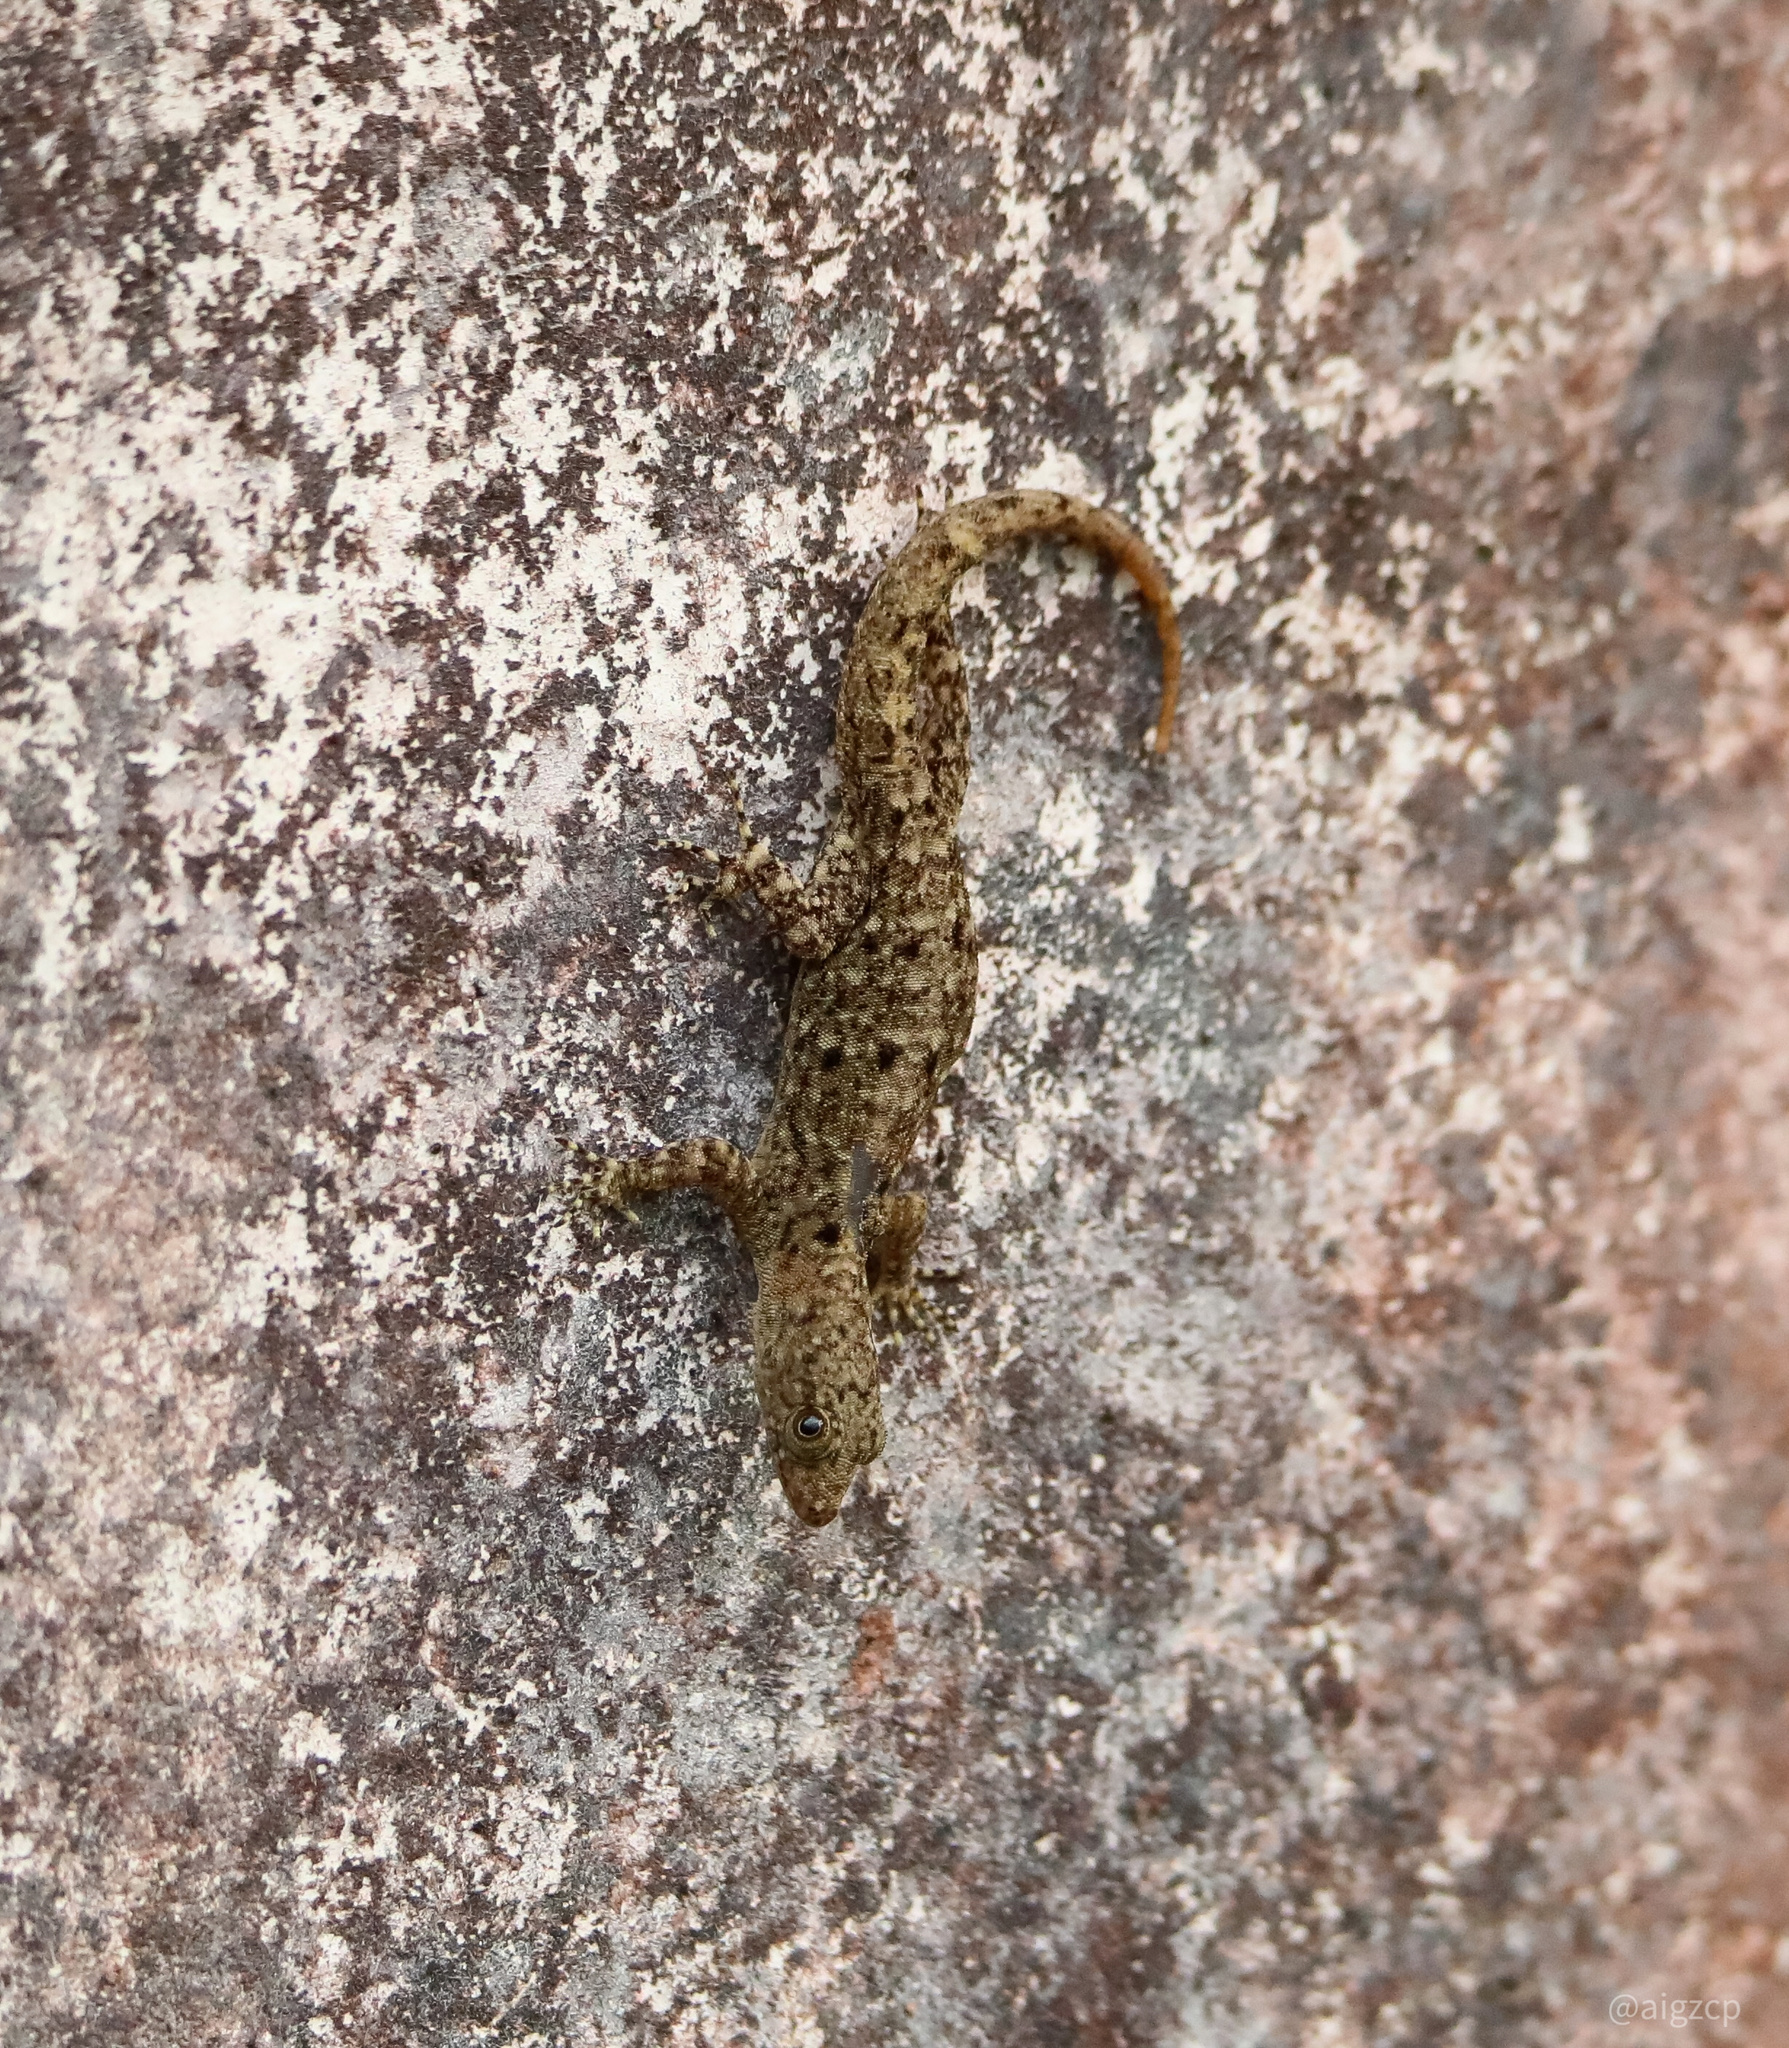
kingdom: Animalia
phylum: Chordata
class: Squamata
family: Sphaerodactylidae
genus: Gonatodes
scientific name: Gonatodes albogularis
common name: Yellow-headed gecko
